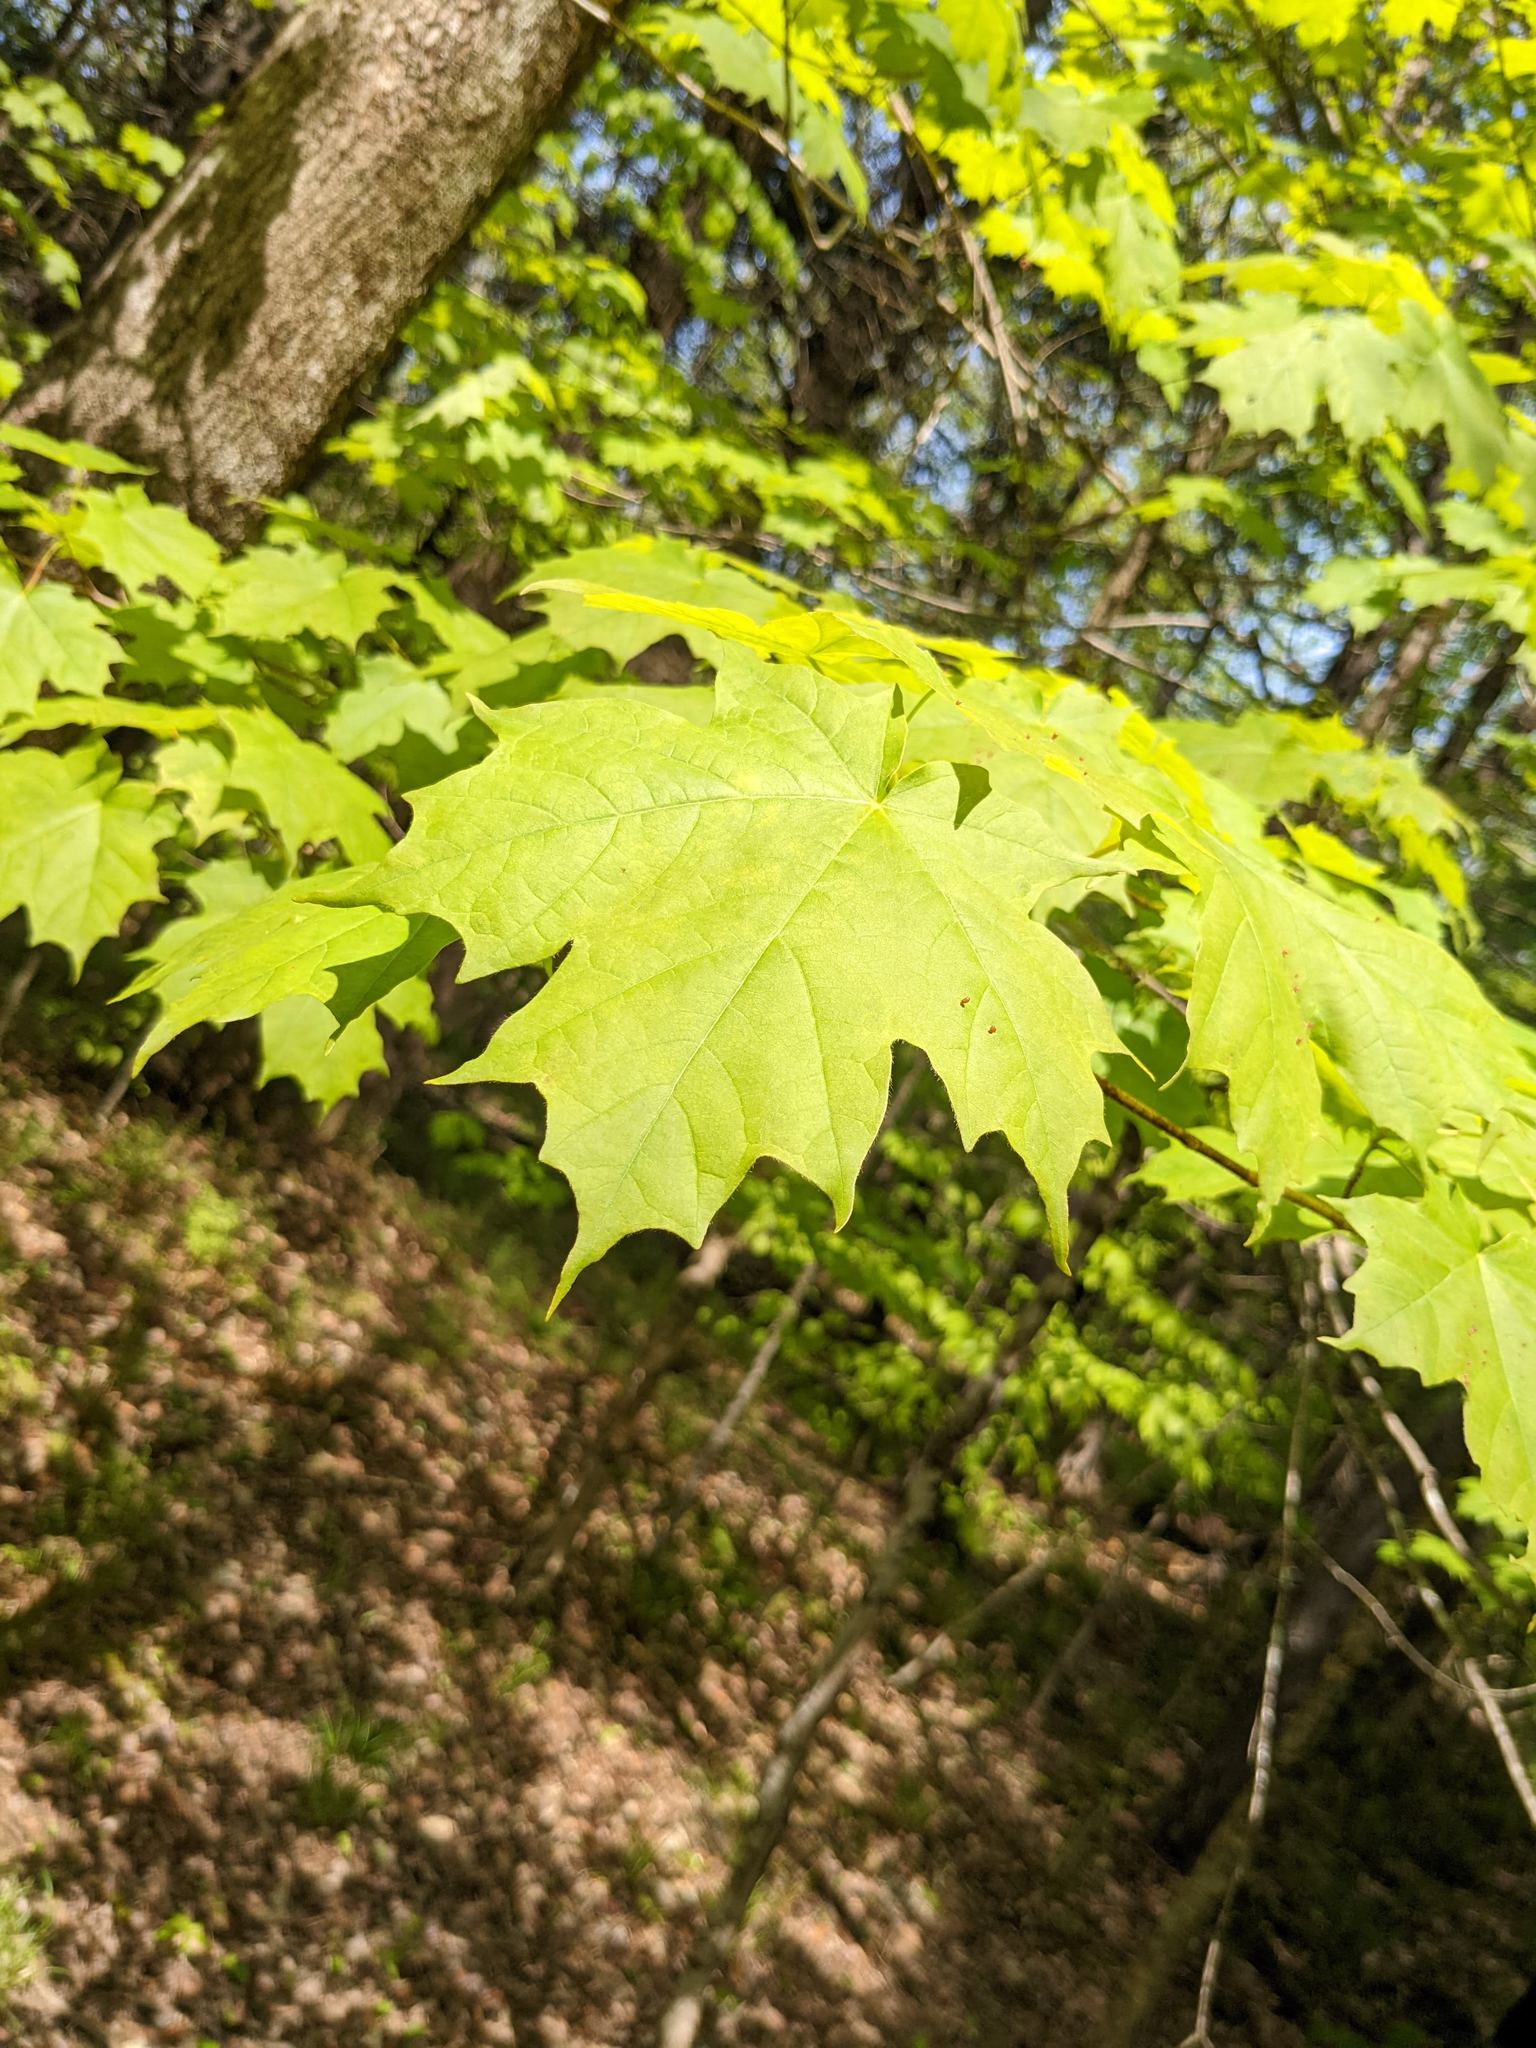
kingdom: Plantae
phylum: Tracheophyta
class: Magnoliopsida
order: Sapindales
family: Sapindaceae
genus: Acer
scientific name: Acer saccharum
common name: Sugar maple
